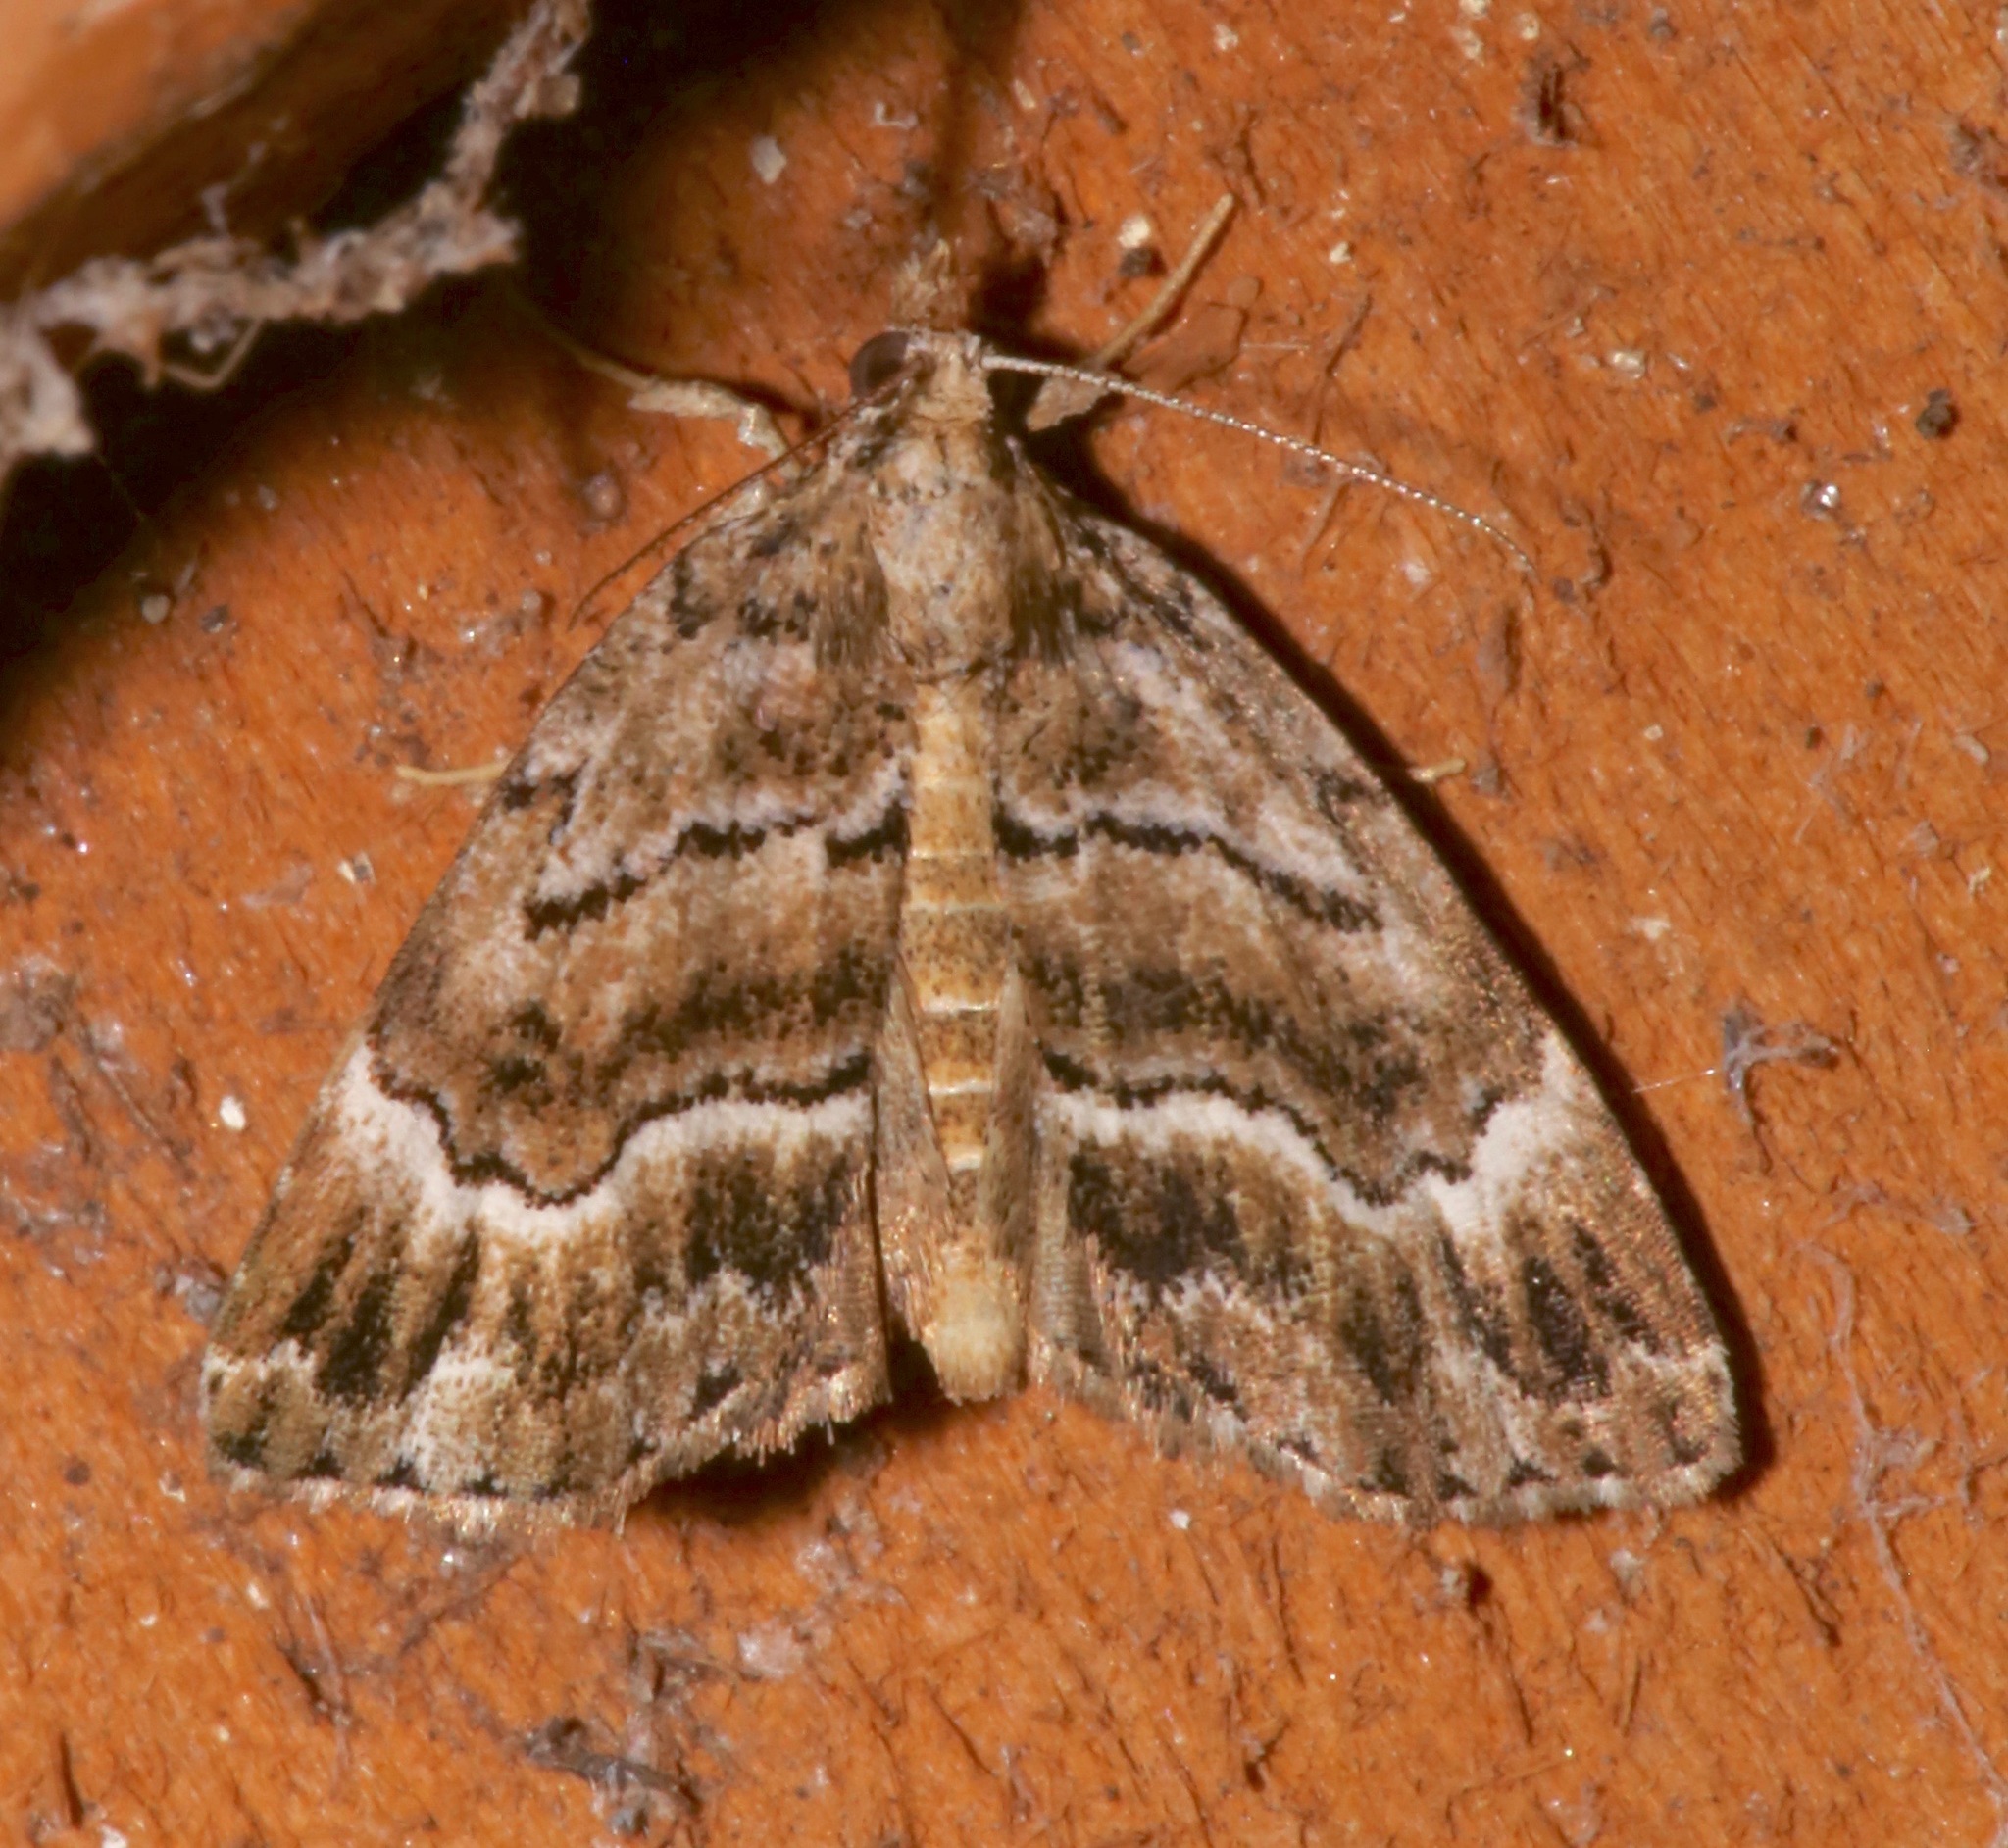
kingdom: Animalia
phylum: Arthropoda
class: Insecta
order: Lepidoptera
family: Erebidae
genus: Cutina
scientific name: Cutina arcuata
